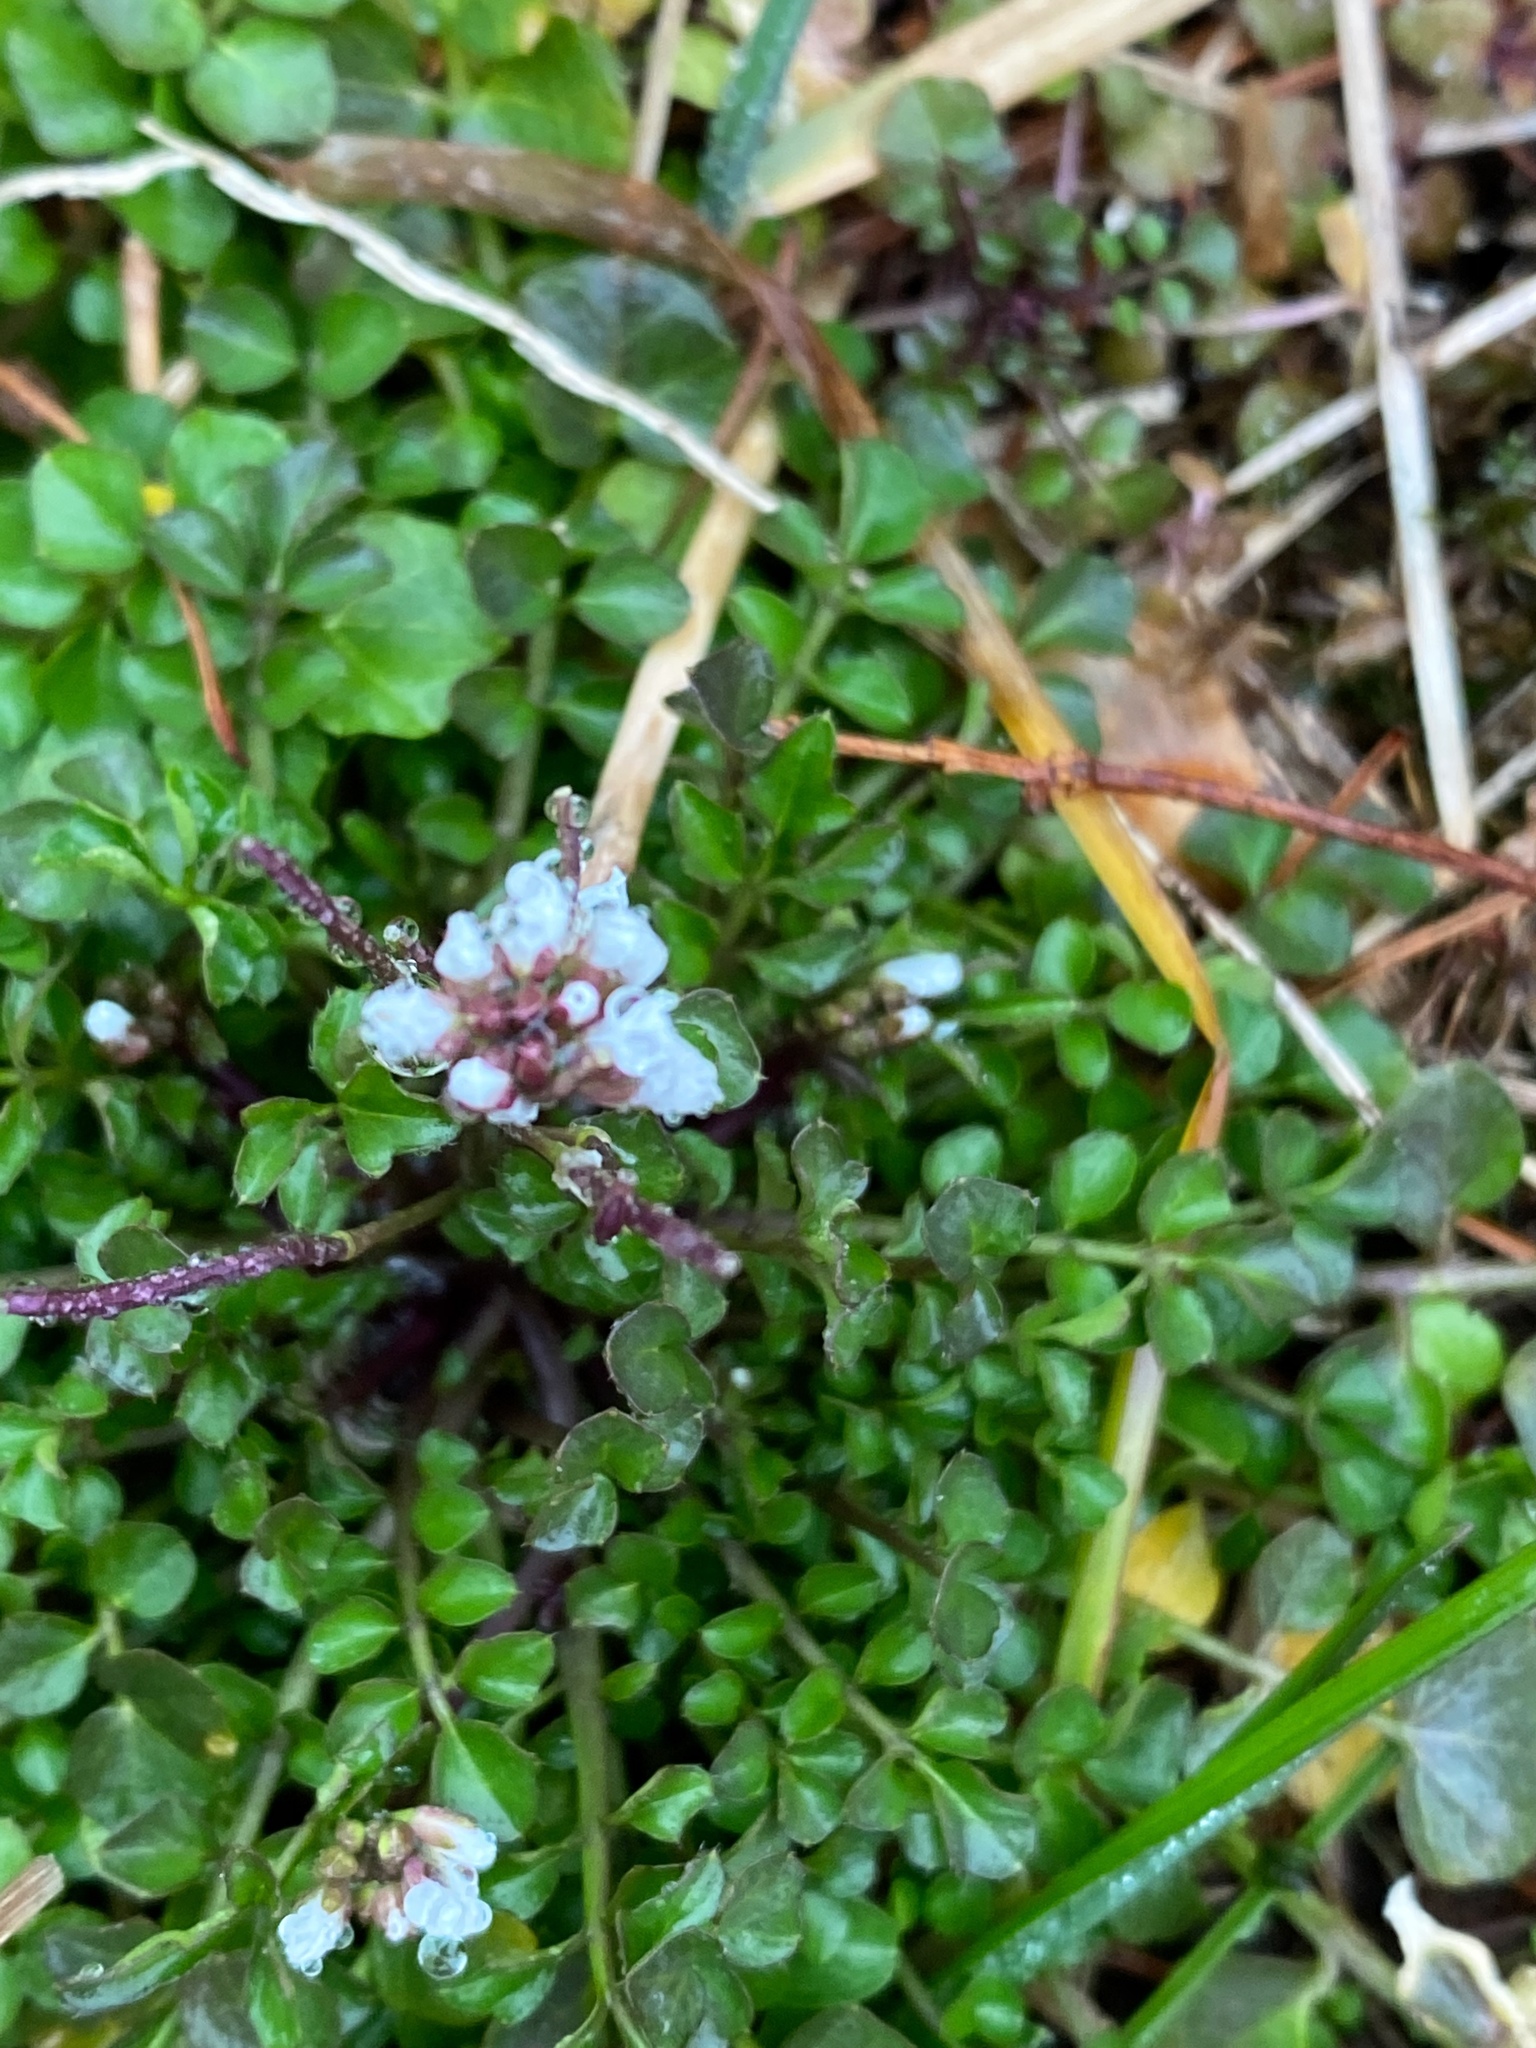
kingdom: Plantae
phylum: Tracheophyta
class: Magnoliopsida
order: Brassicales
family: Brassicaceae
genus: Cardamine
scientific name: Cardamine hirsuta
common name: Hairy bittercress
